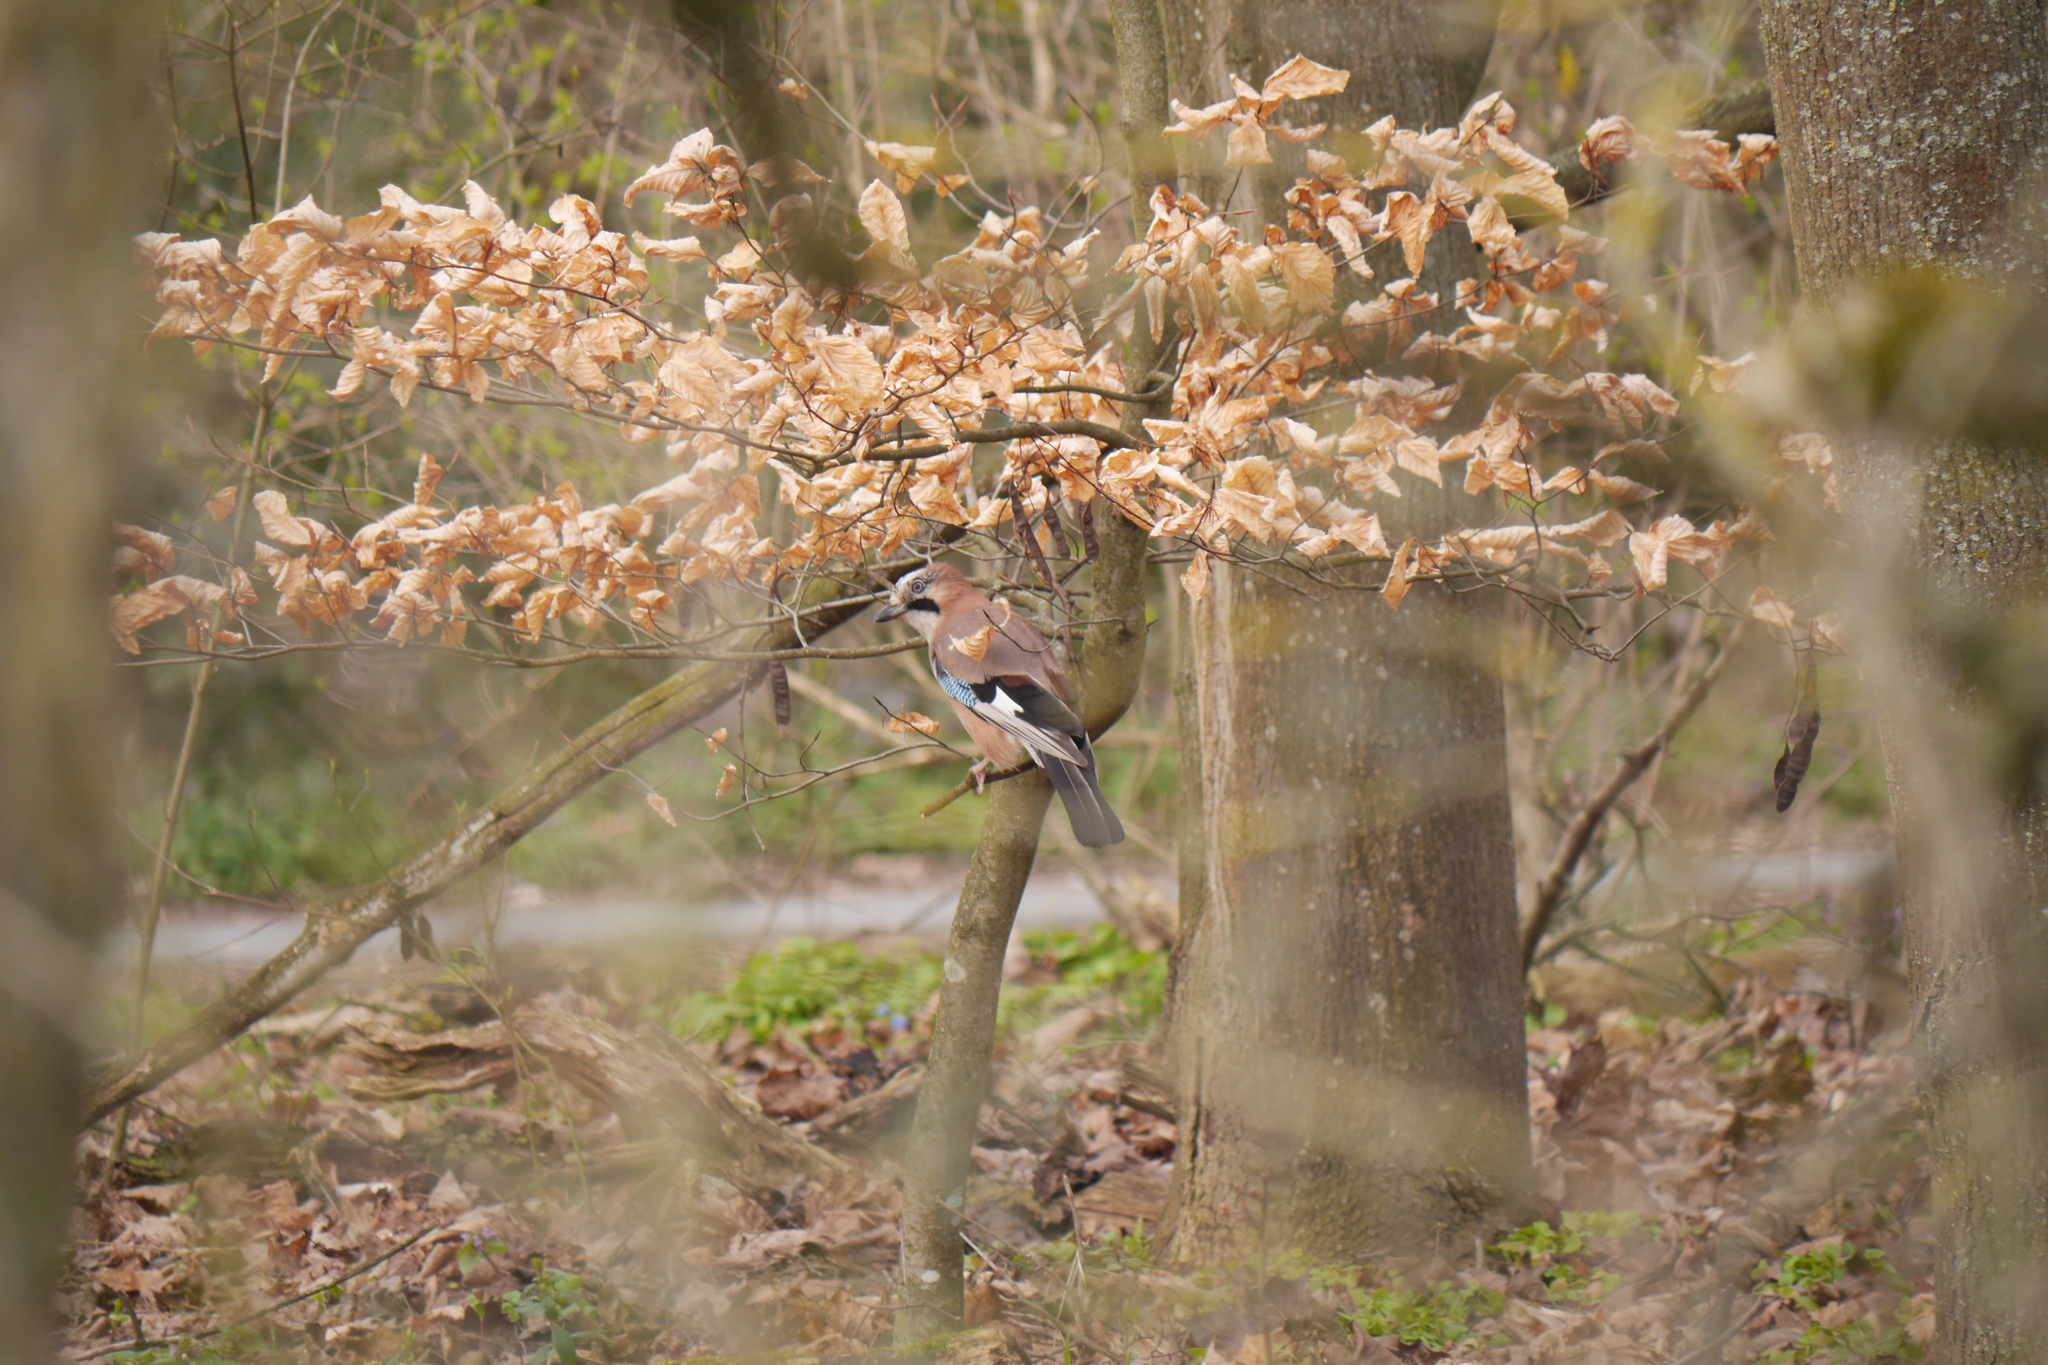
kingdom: Animalia
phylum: Chordata
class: Aves
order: Passeriformes
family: Corvidae
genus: Garrulus
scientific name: Garrulus glandarius
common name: Eurasian jay
